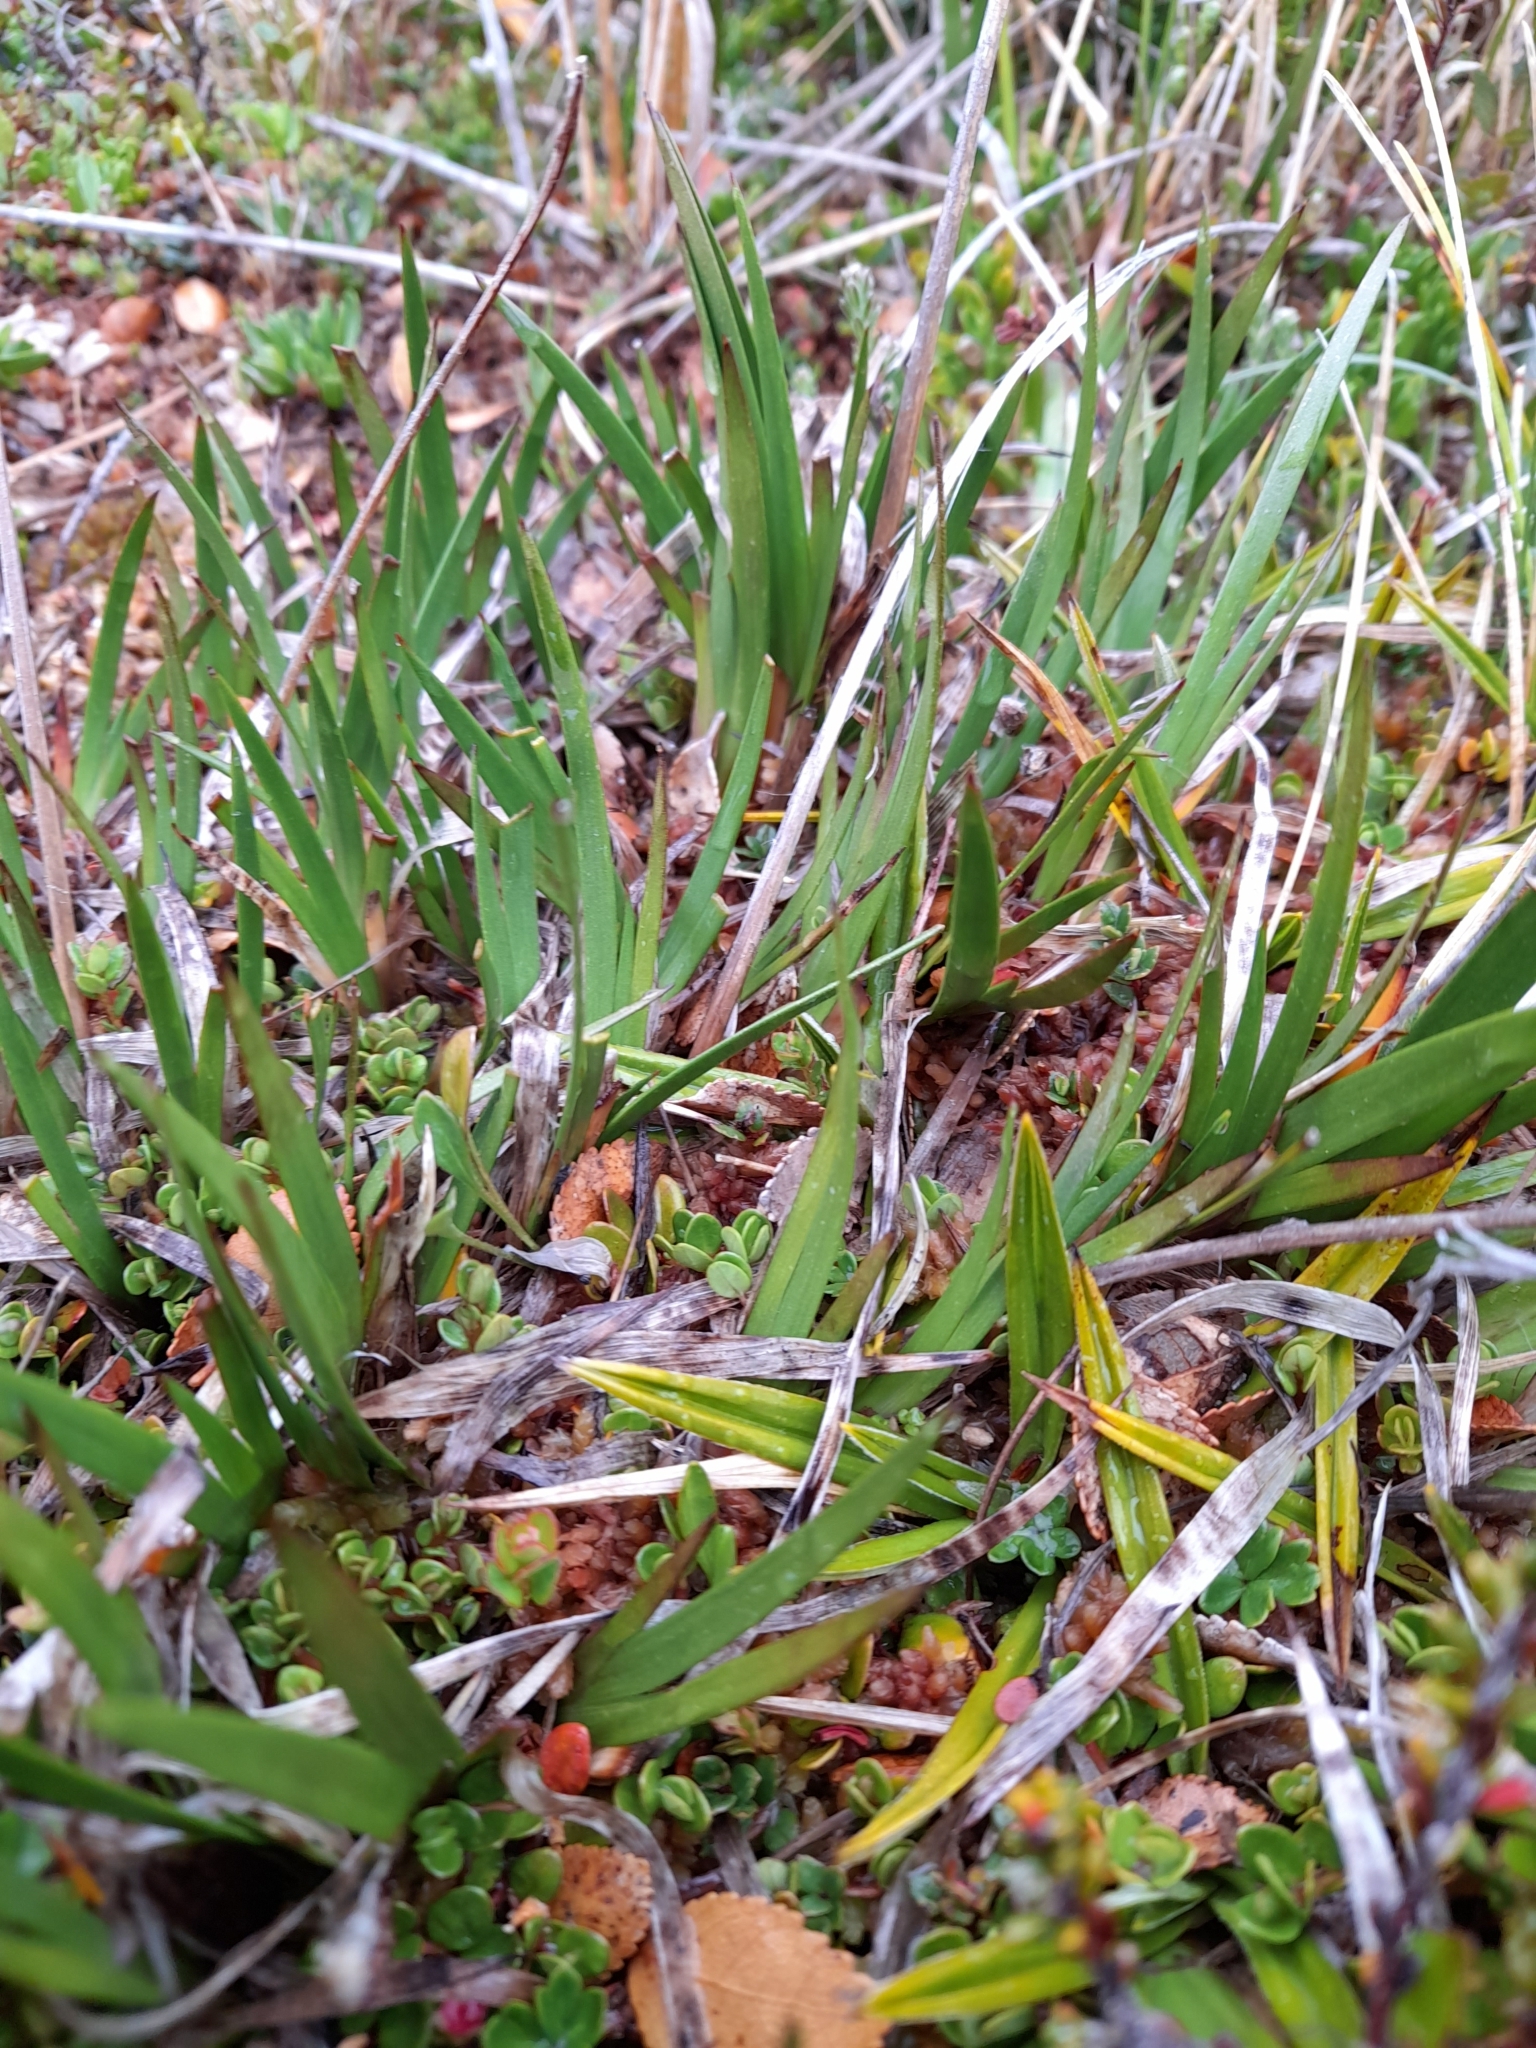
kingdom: Plantae
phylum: Tracheophyta
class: Liliopsida
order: Alismatales
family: Juncaginaceae
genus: Tetroncium
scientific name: Tetroncium magellanicum
